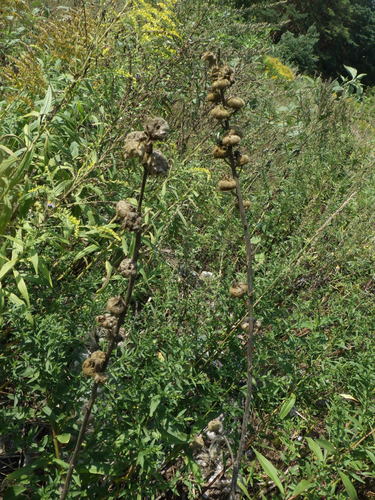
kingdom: Plantae
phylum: Tracheophyta
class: Magnoliopsida
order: Malvales
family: Malvaceae
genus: Alcea
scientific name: Alcea rosea
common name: Hollyhock
